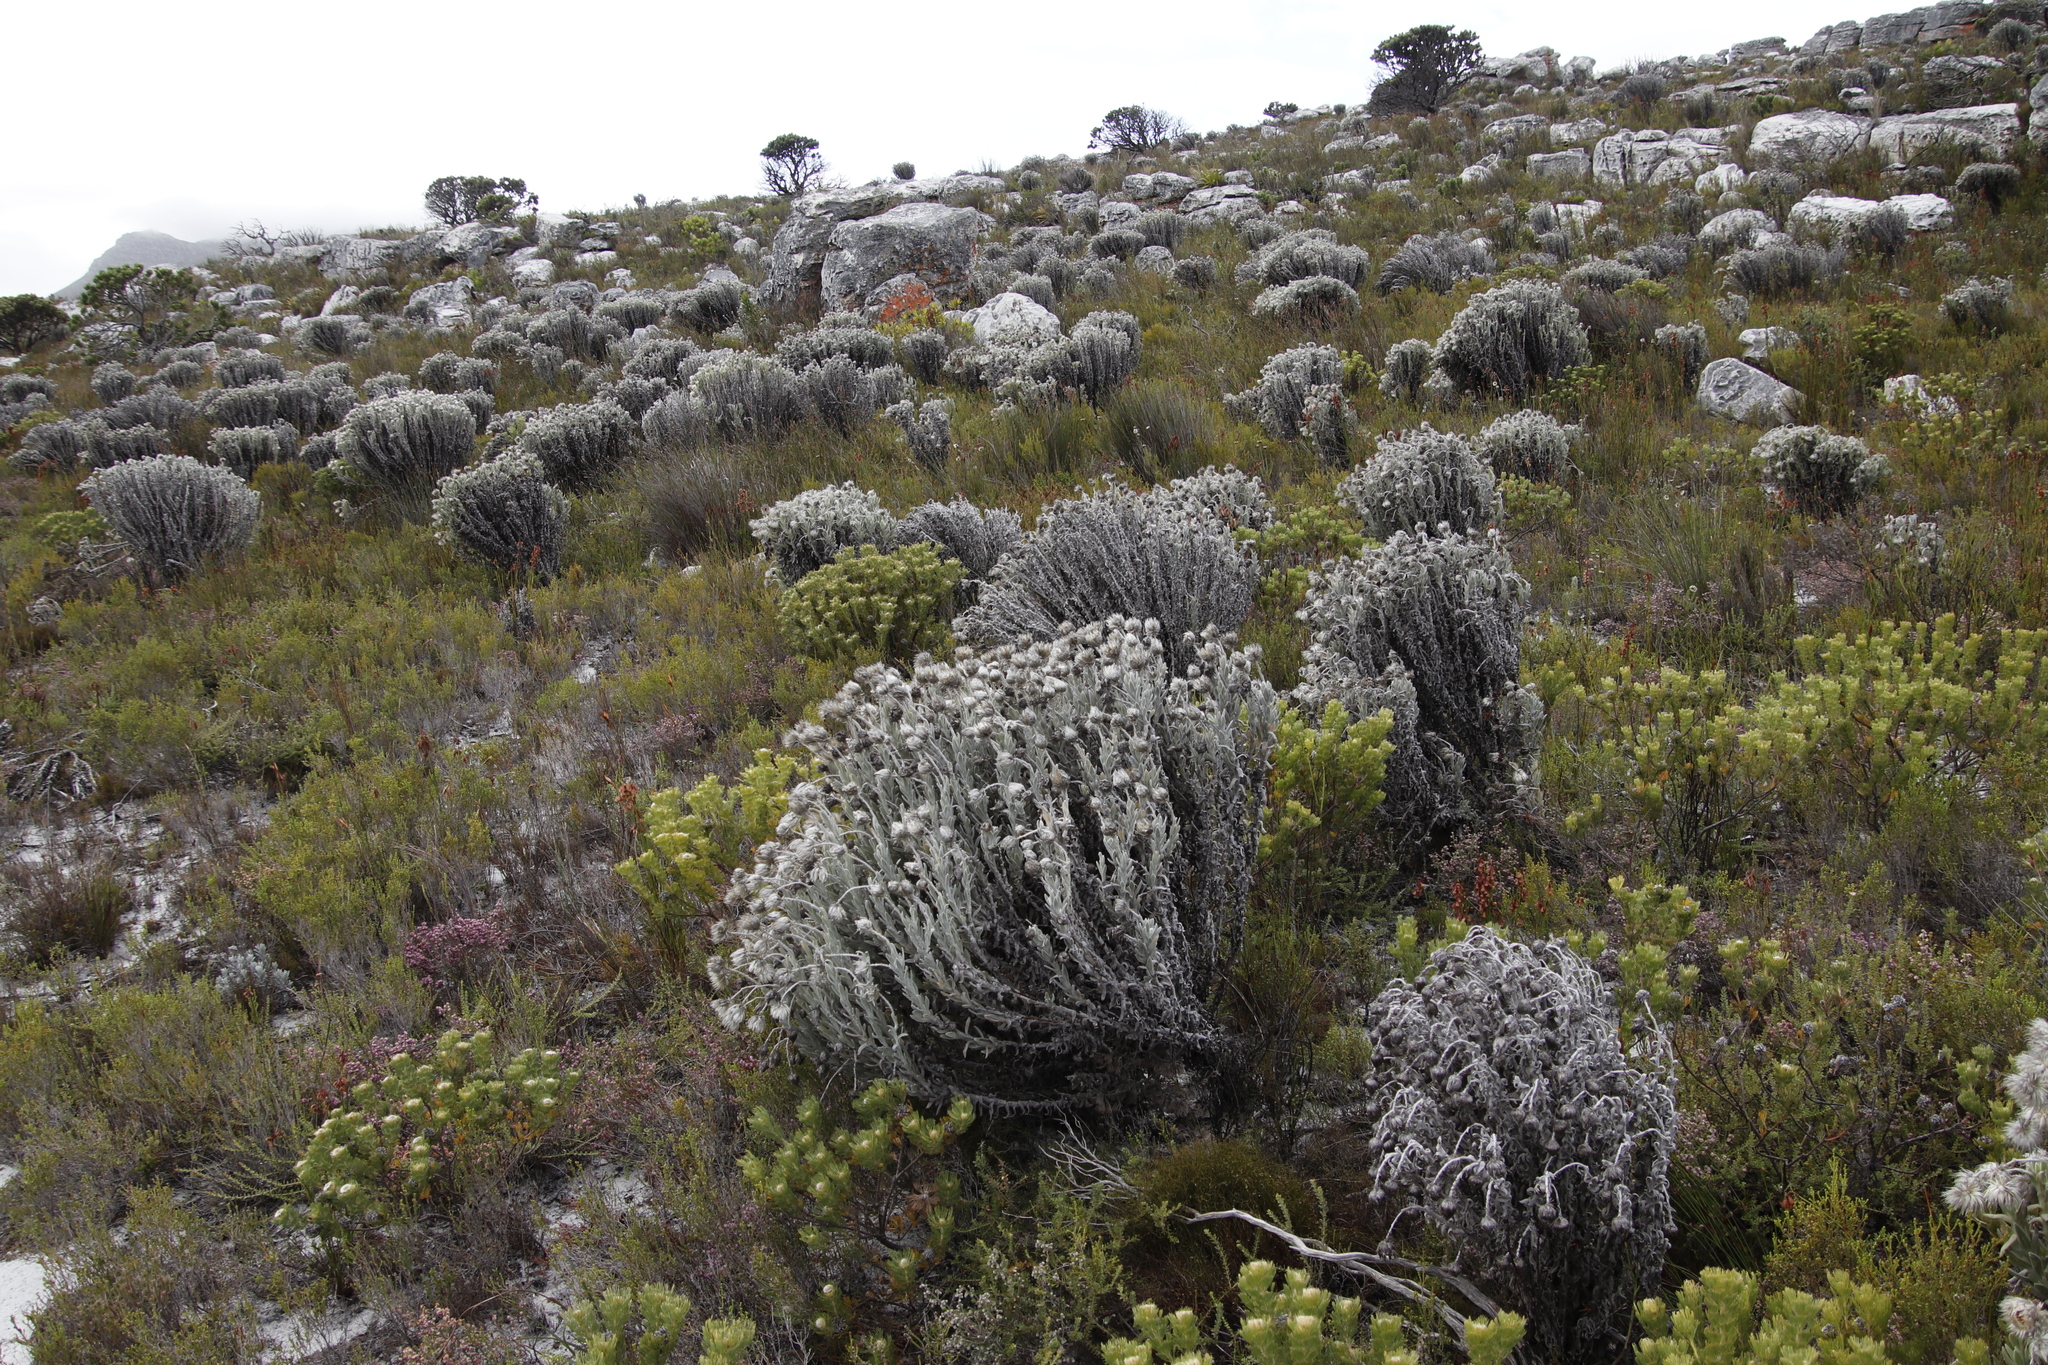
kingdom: Plantae
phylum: Tracheophyta
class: Magnoliopsida
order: Asterales
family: Asteraceae
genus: Syncarpha
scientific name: Syncarpha vestita
